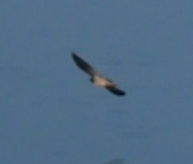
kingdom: Animalia
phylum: Chordata
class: Aves
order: Passeriformes
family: Hirundinidae
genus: Hirundo
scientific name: Hirundo rustica
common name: Barn swallow
